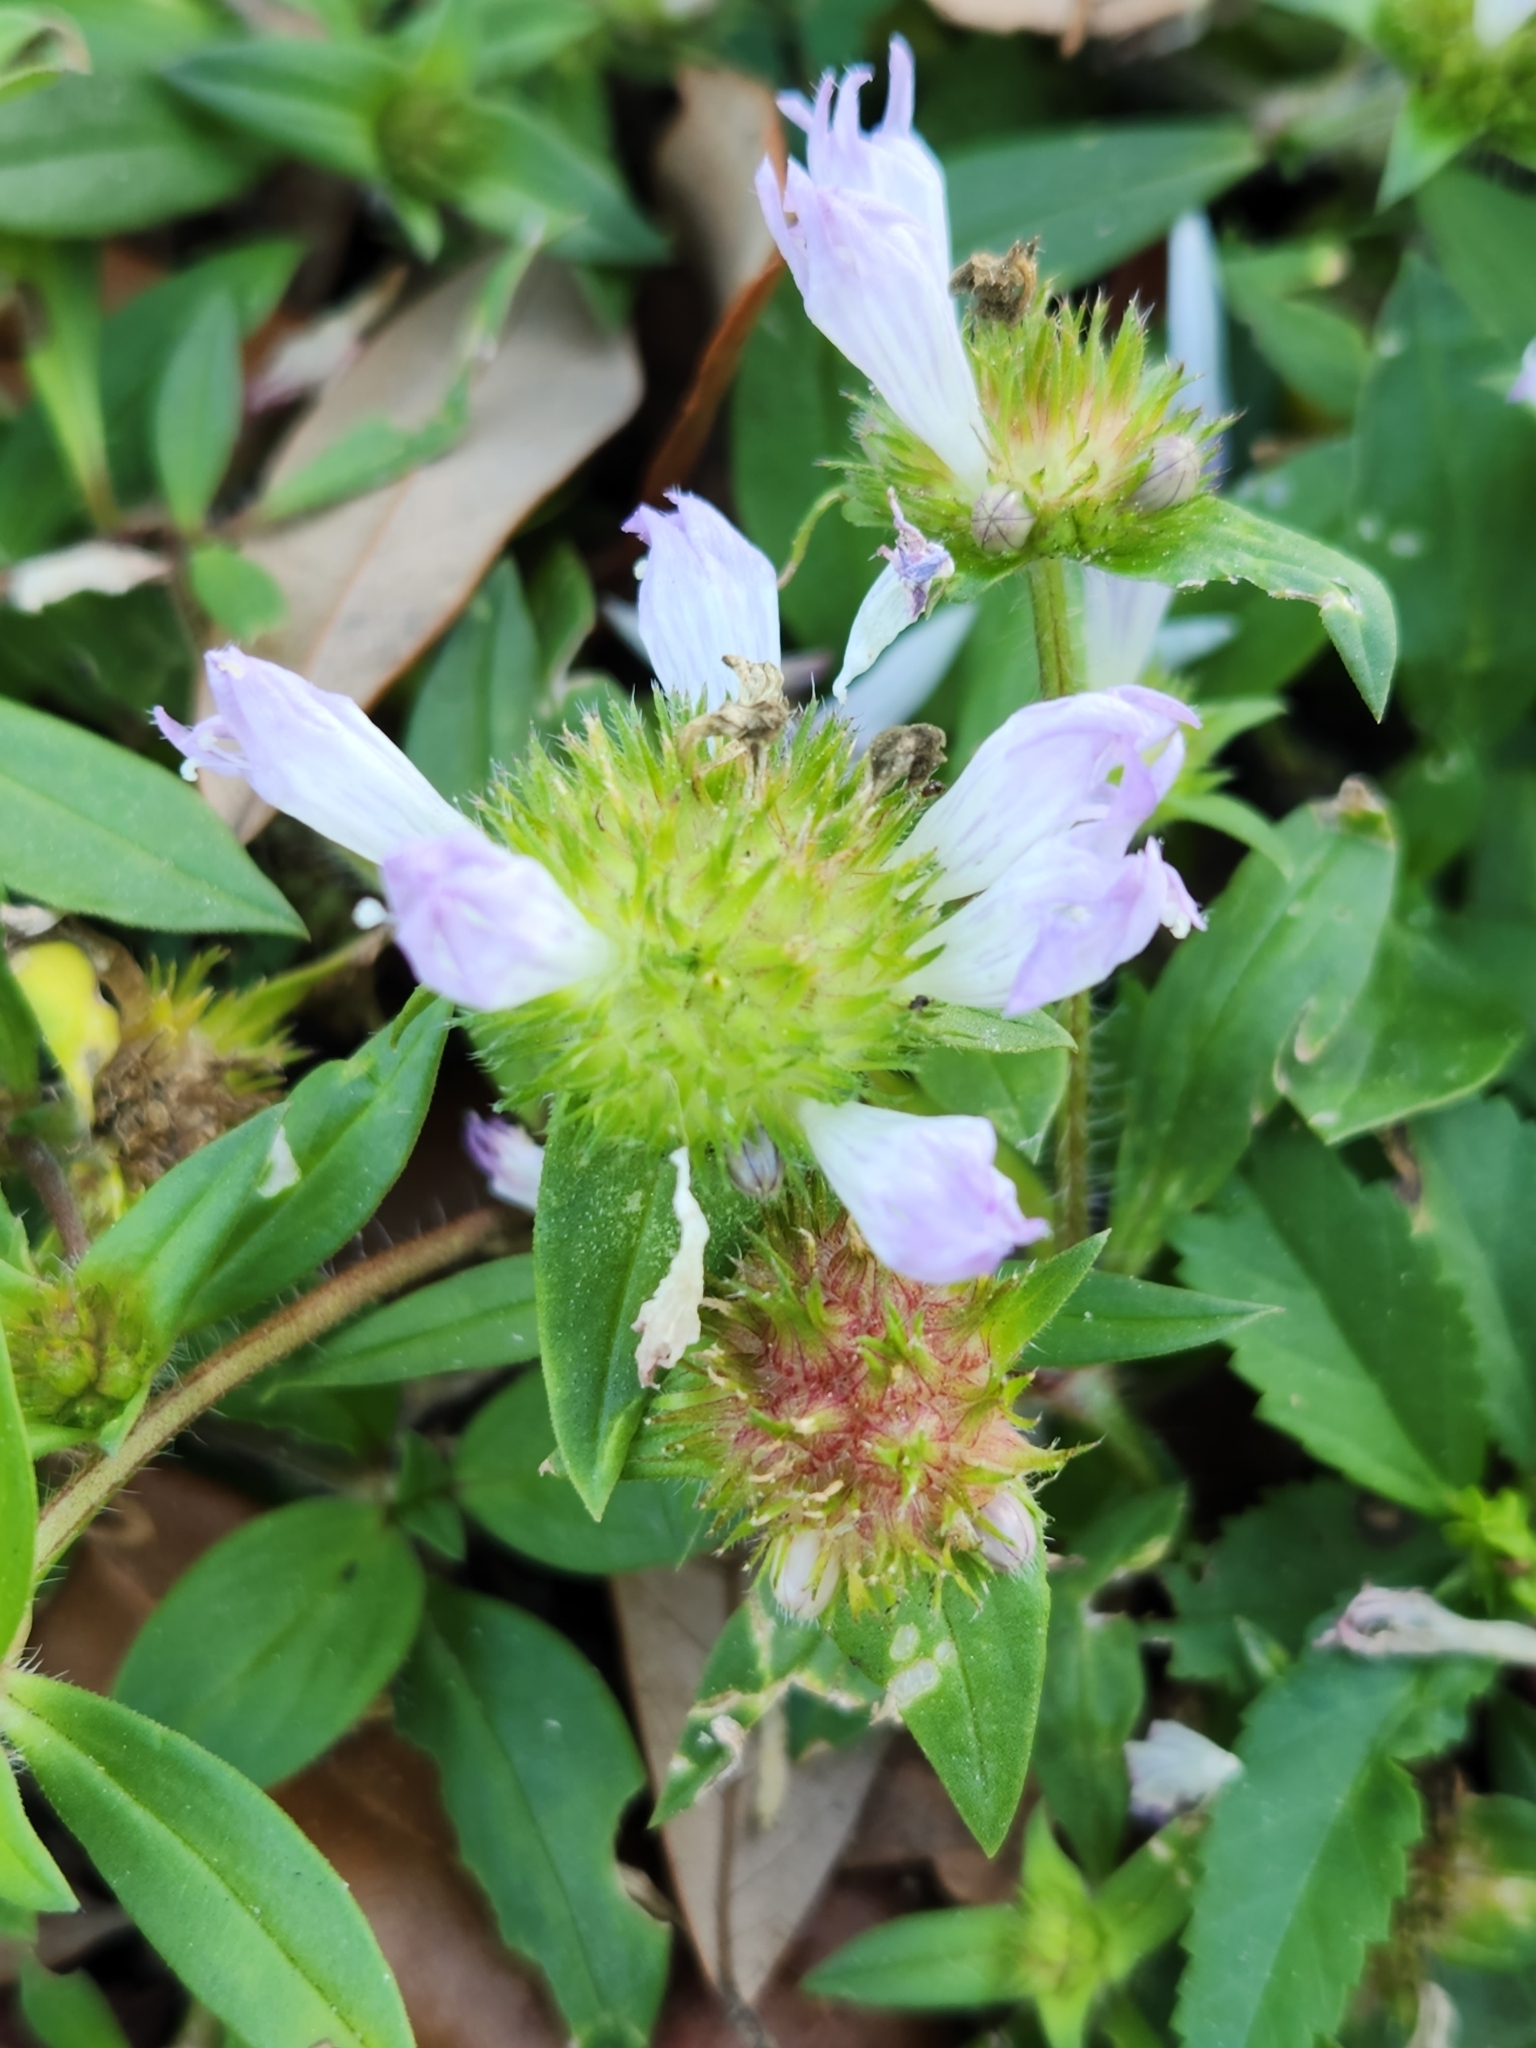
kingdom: Plantae
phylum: Tracheophyta
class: Magnoliopsida
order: Gentianales
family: Rubiaceae
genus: Richardia
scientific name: Richardia grandiflora
